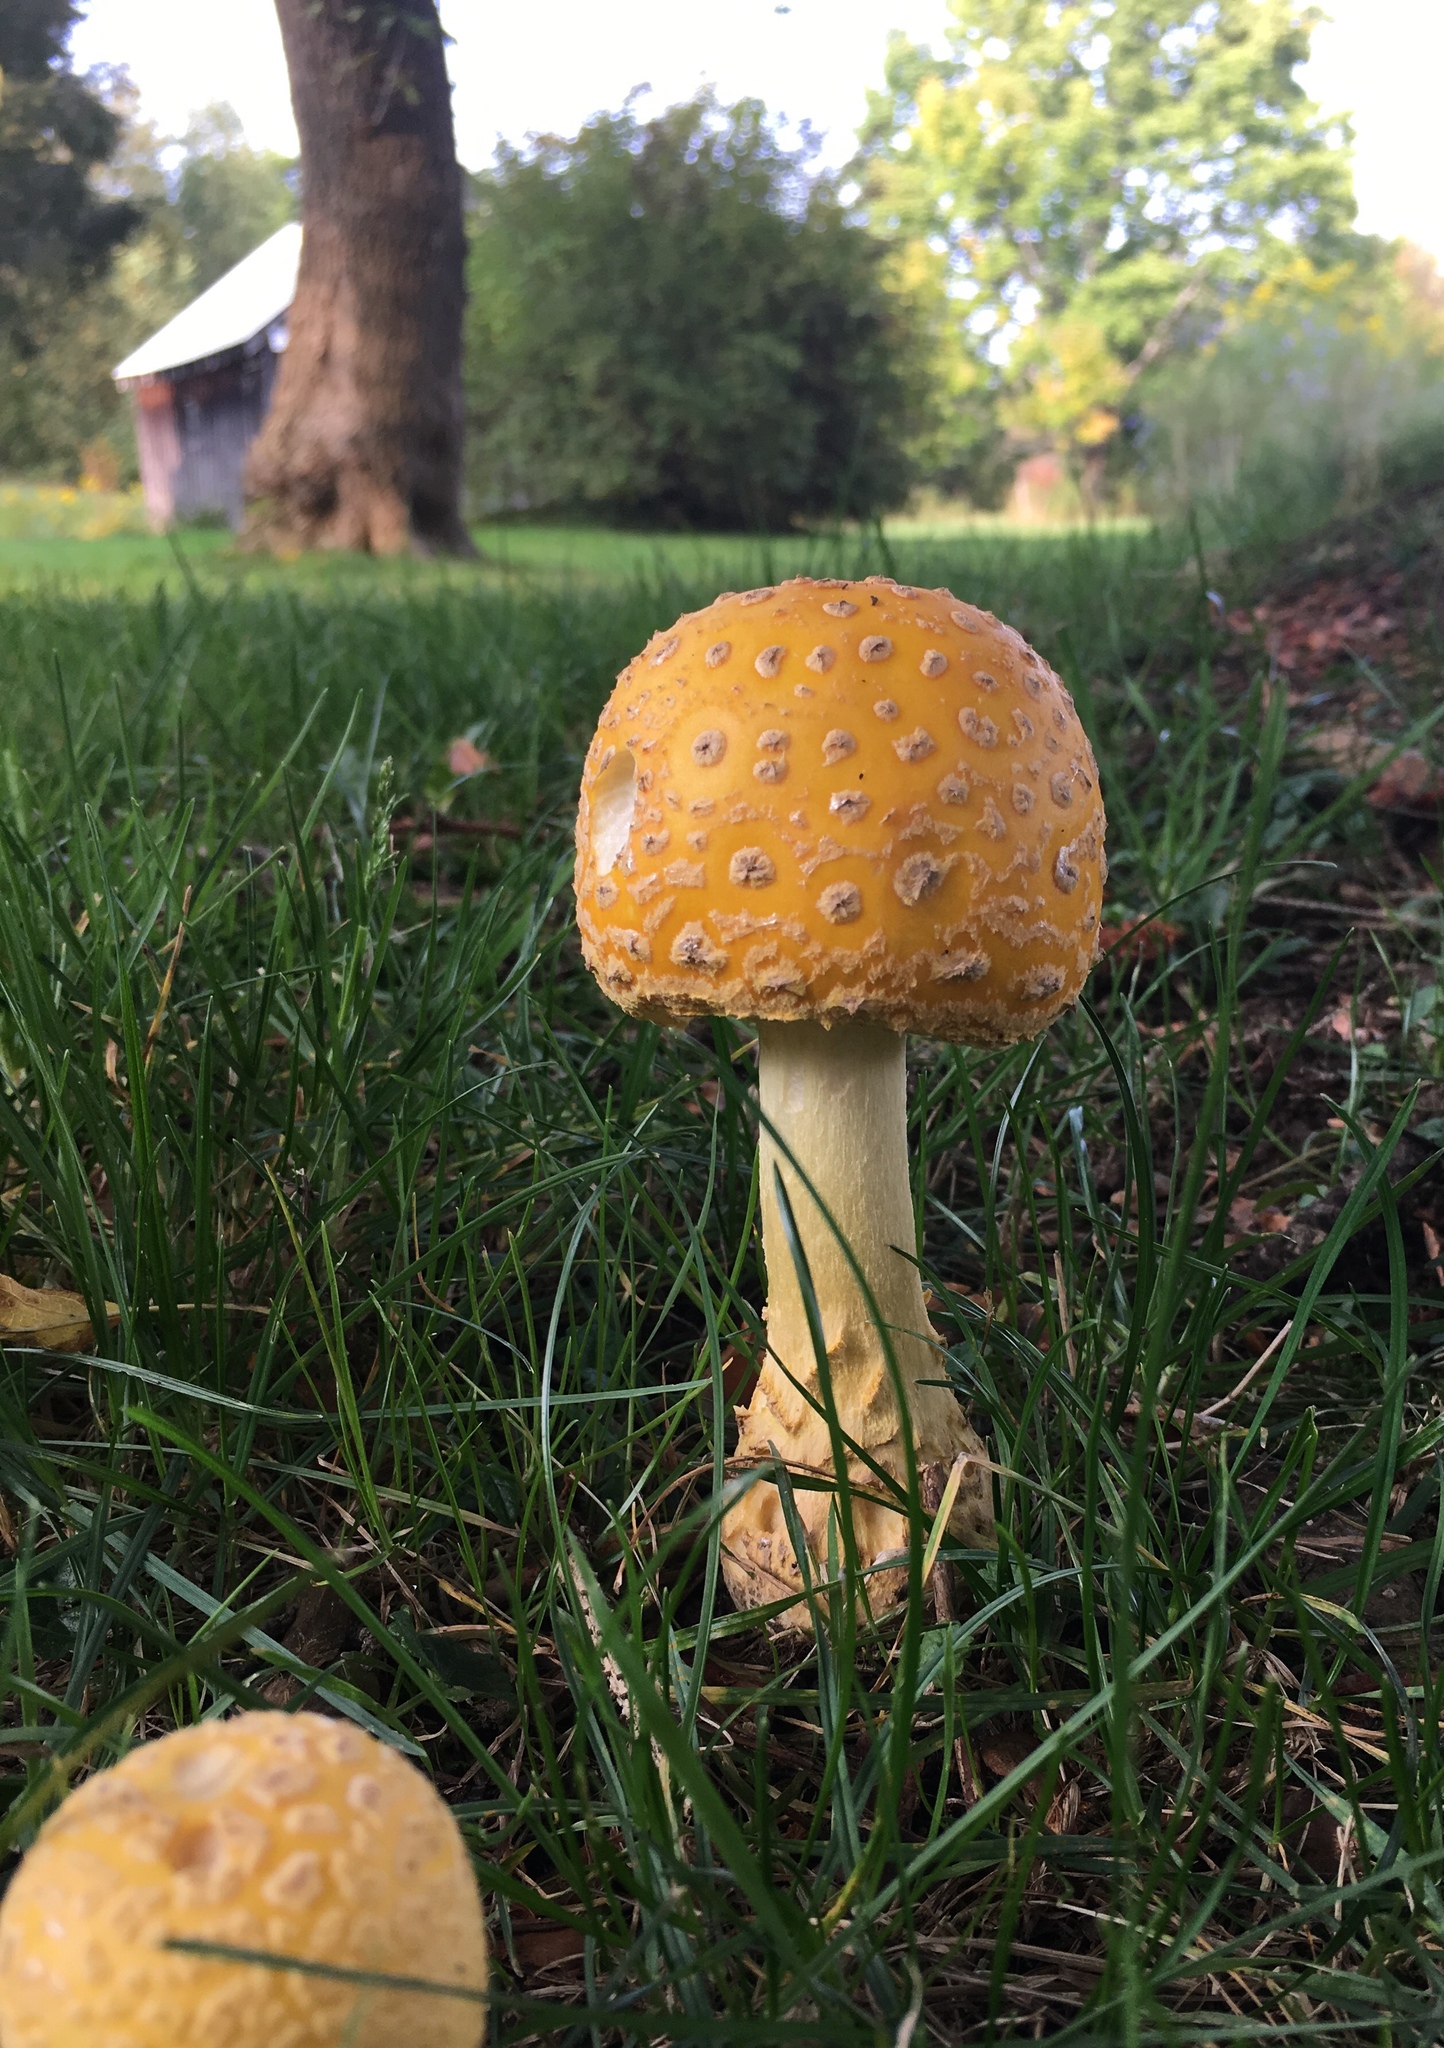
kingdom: Fungi
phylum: Basidiomycota
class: Agaricomycetes
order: Agaricales
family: Amanitaceae
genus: Amanita
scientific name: Amanita muscaria
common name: Fly agaric
